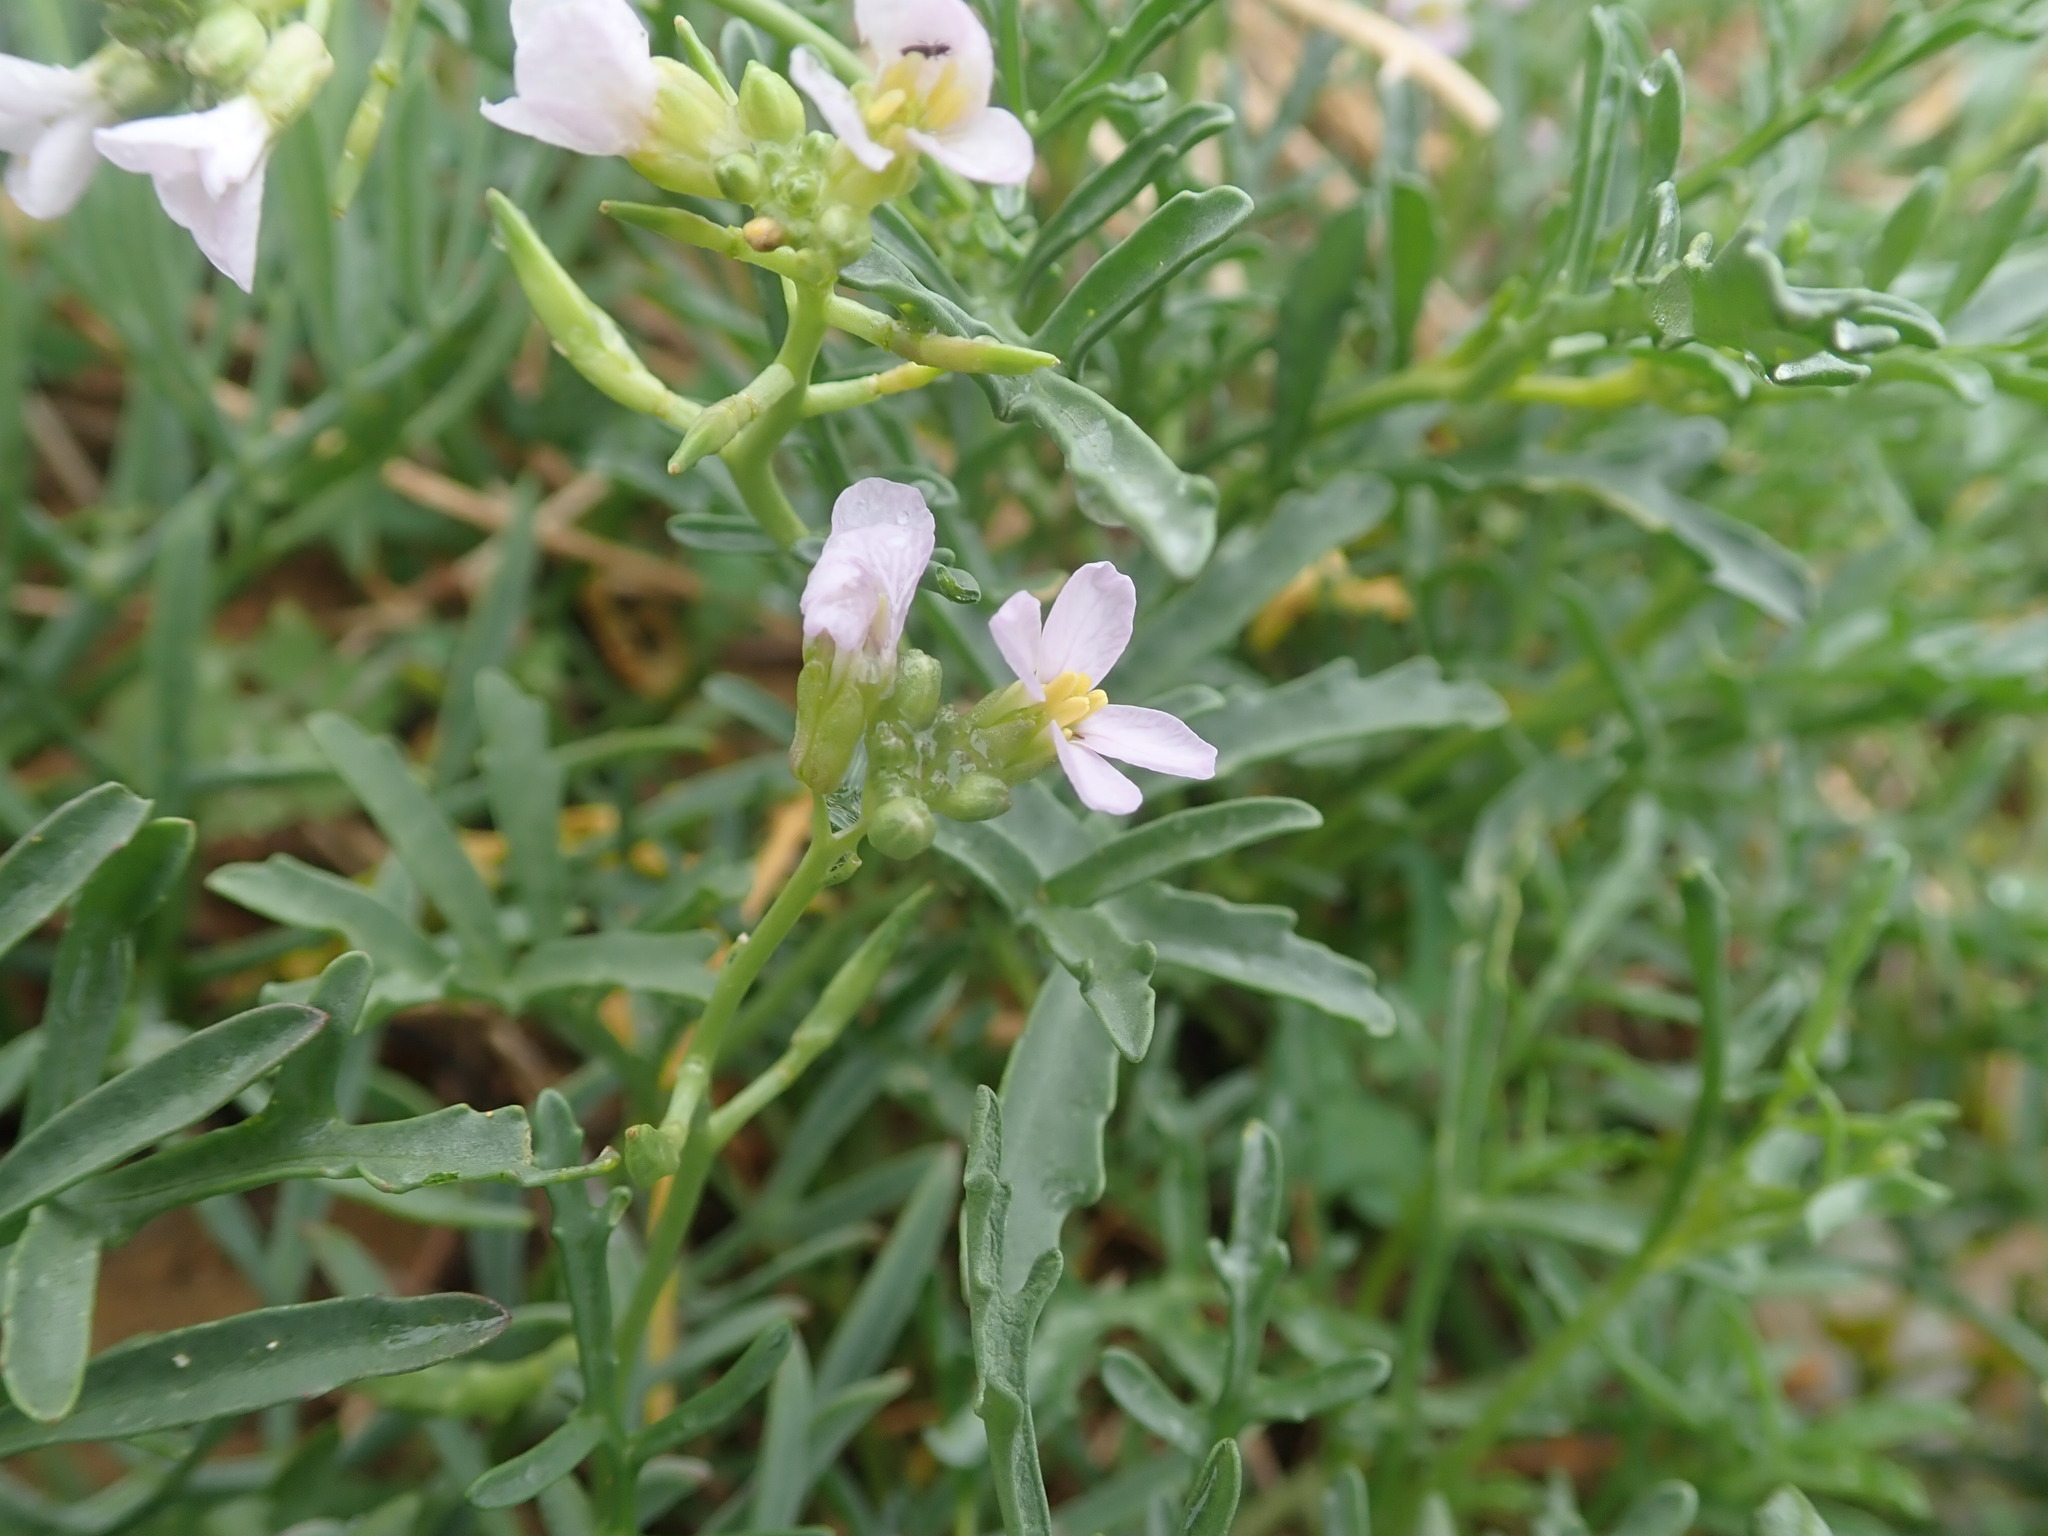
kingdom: Plantae
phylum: Tracheophyta
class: Magnoliopsida
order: Brassicales
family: Brassicaceae
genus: Cakile
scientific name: Cakile maritima
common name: Sea rocket
